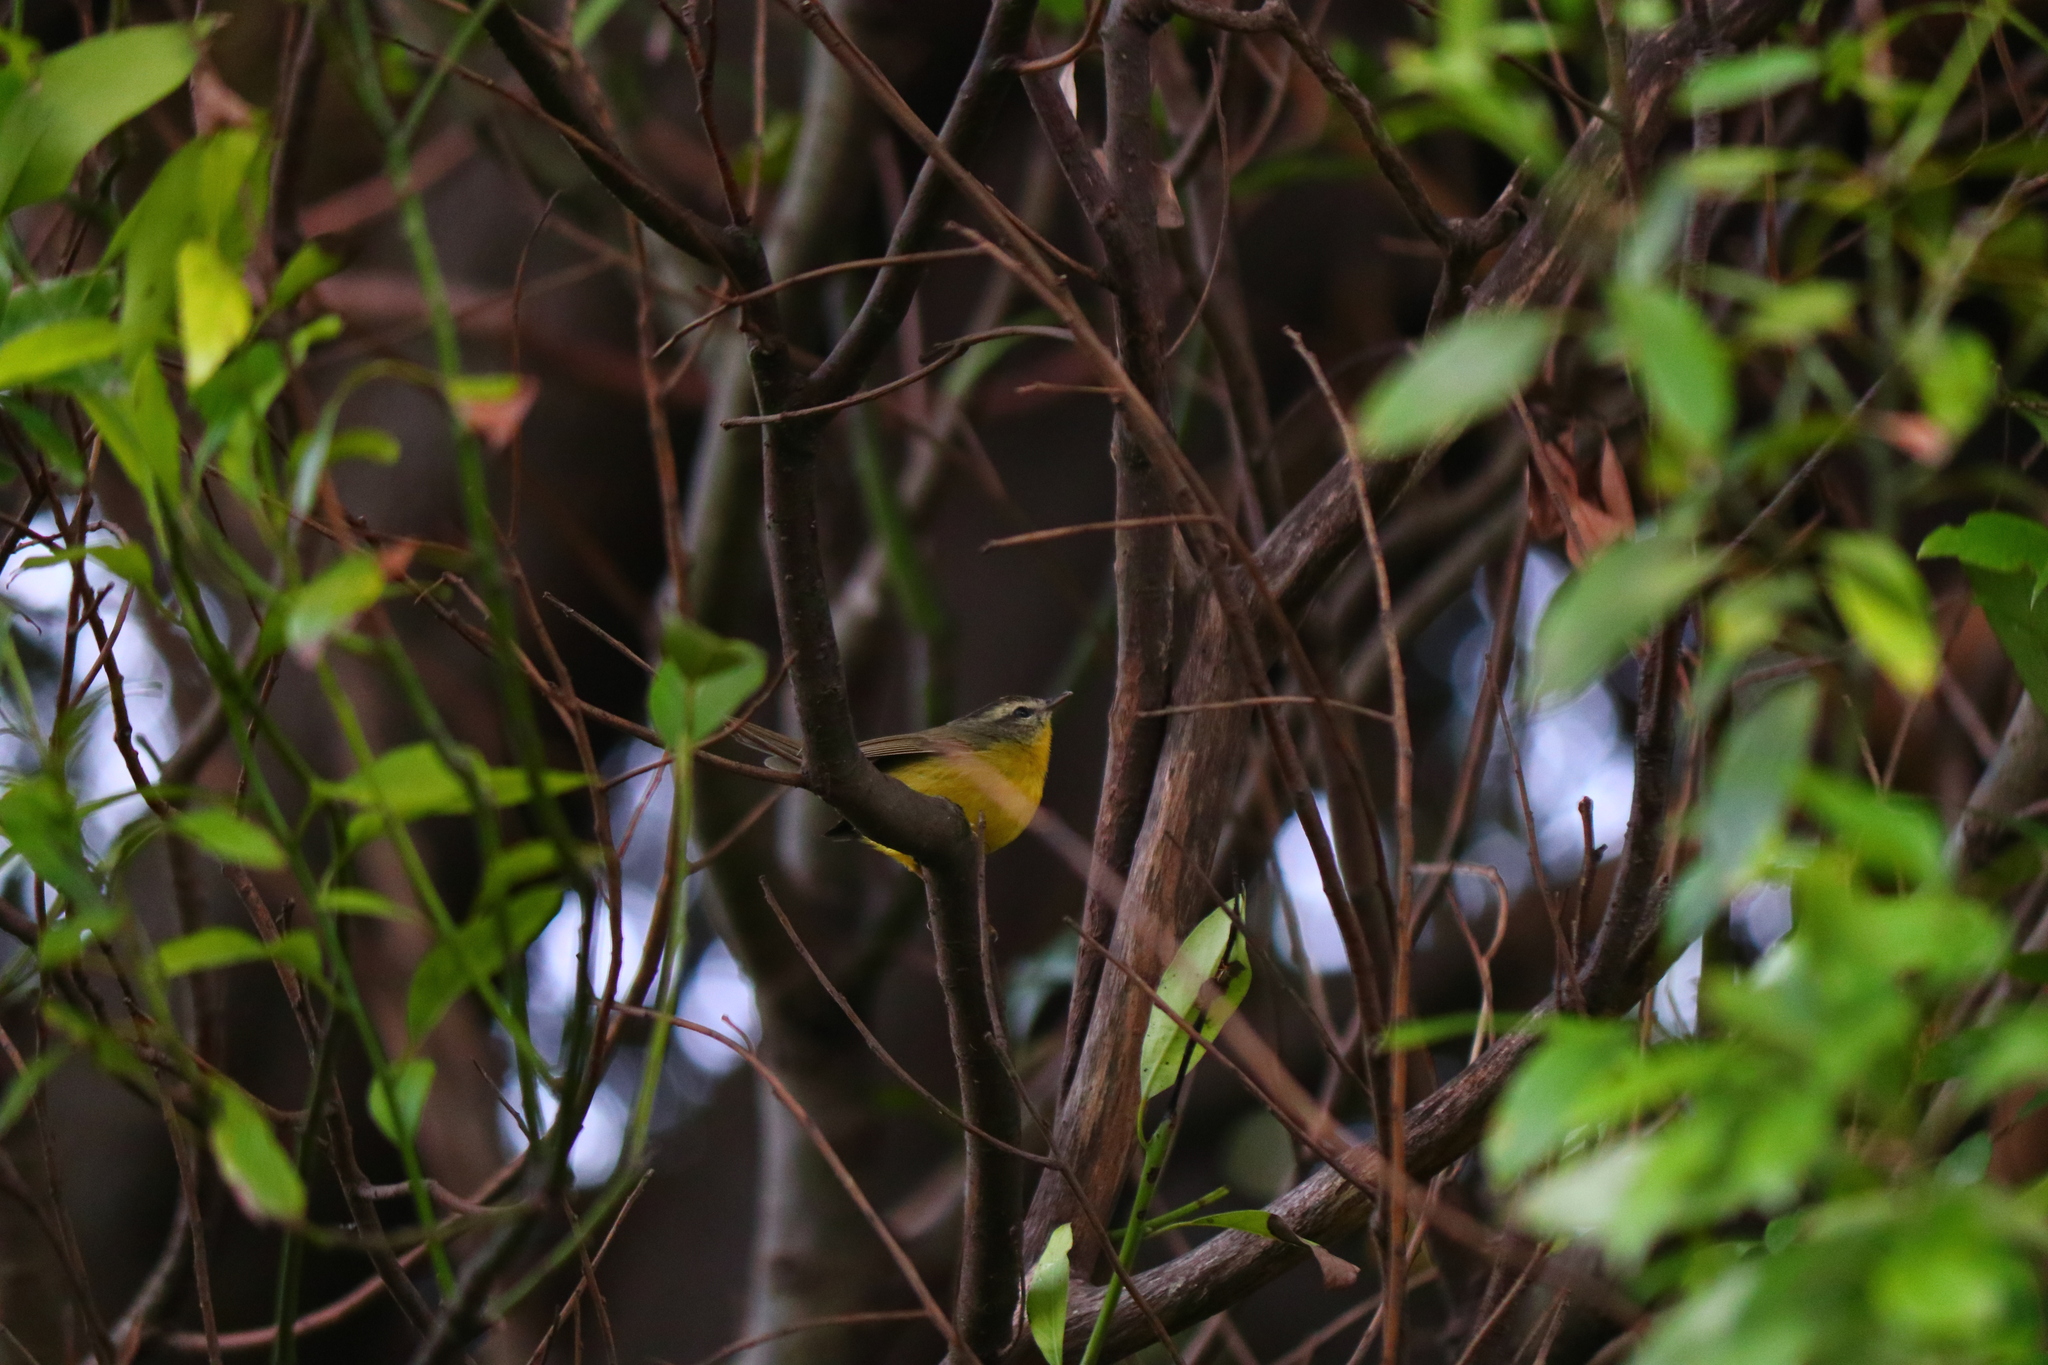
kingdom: Animalia
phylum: Chordata
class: Aves
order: Passeriformes
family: Parulidae
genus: Basileuterus
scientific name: Basileuterus culicivorus
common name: Golden-crowned warbler
